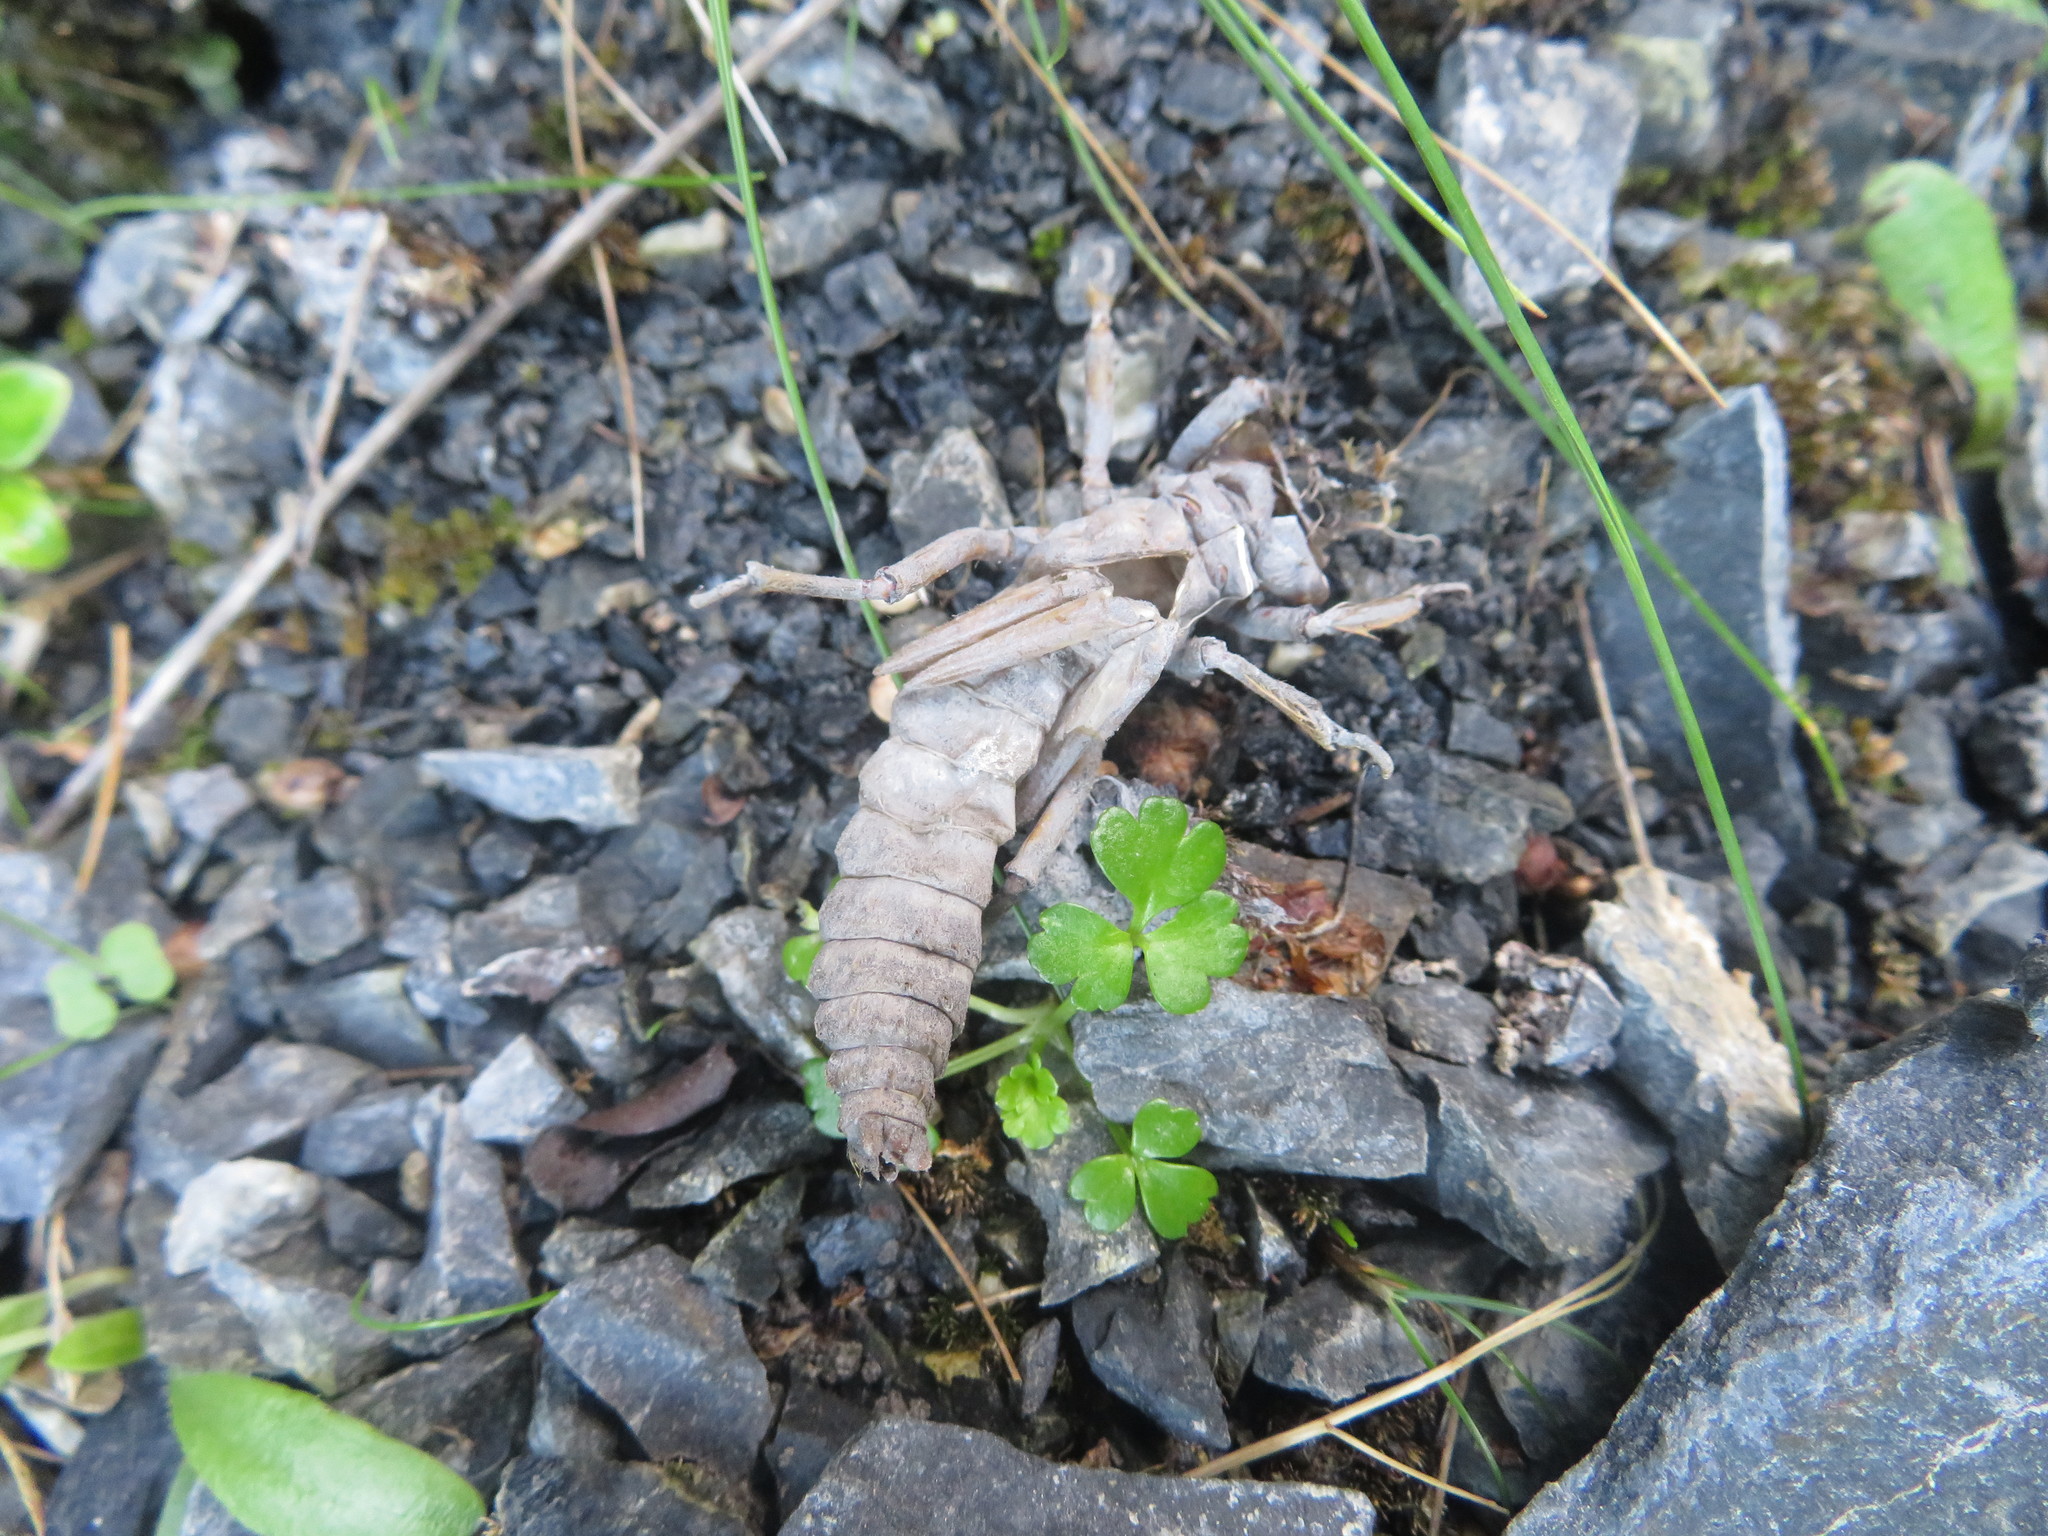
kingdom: Animalia
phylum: Arthropoda
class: Insecta
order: Odonata
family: Petaluridae
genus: Uropetala
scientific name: Uropetala carovei
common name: Bush giant dragonfly
